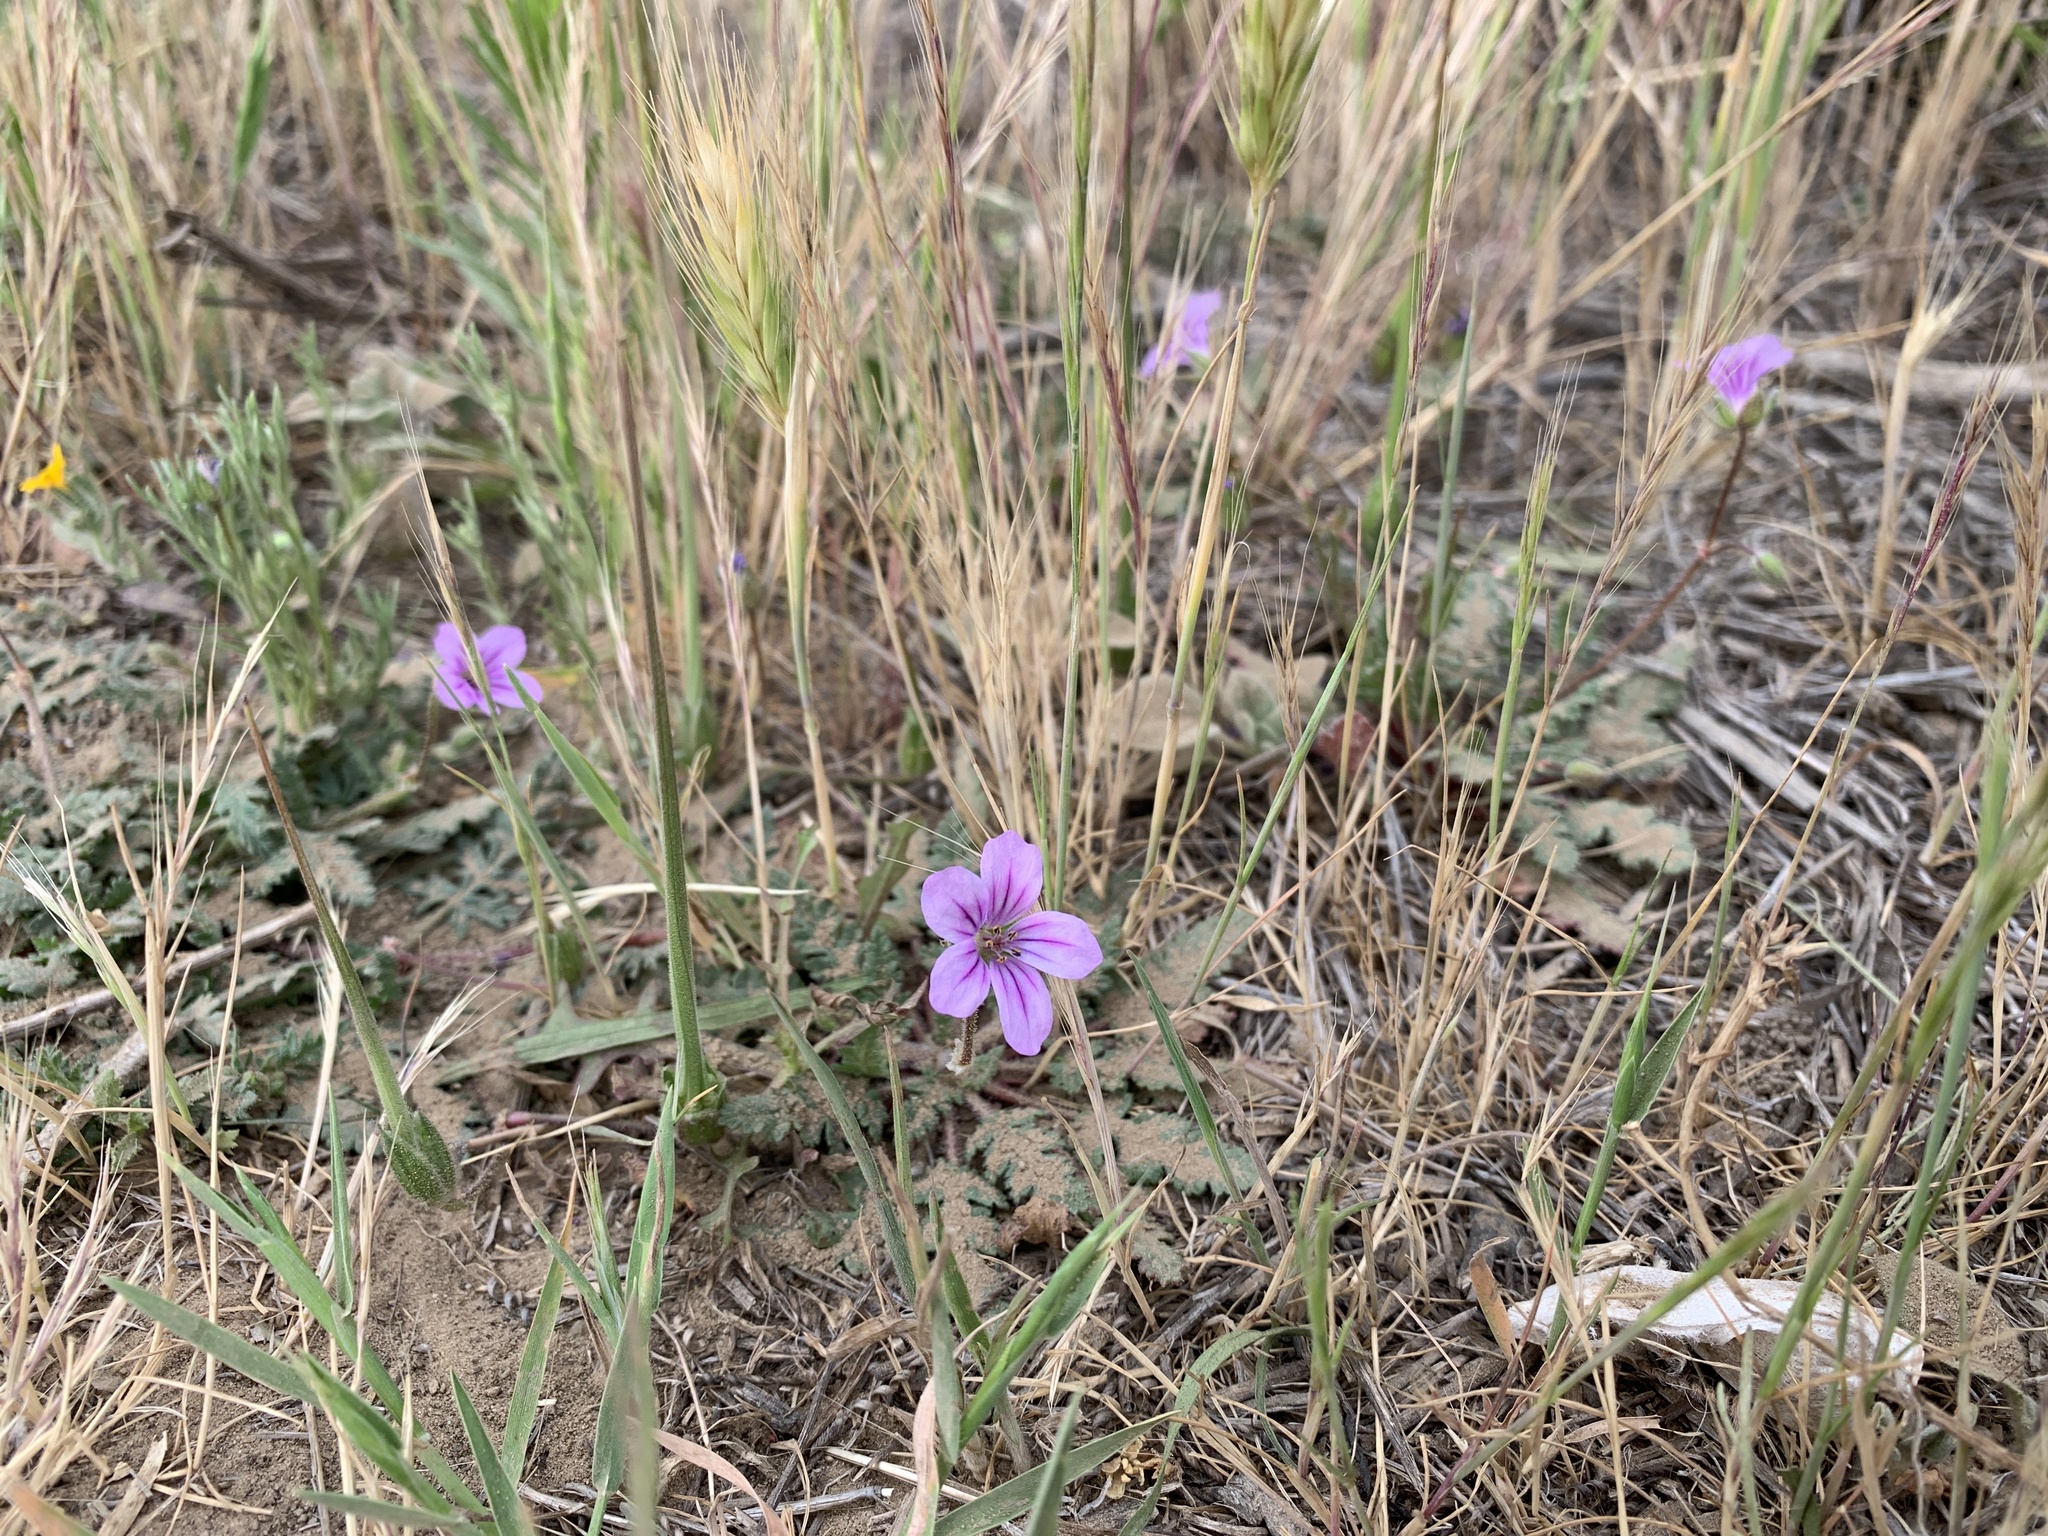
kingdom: Plantae
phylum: Tracheophyta
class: Magnoliopsida
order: Geraniales
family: Geraniaceae
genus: Erodium
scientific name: Erodium botrys
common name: Mediterranean stork's-bill
